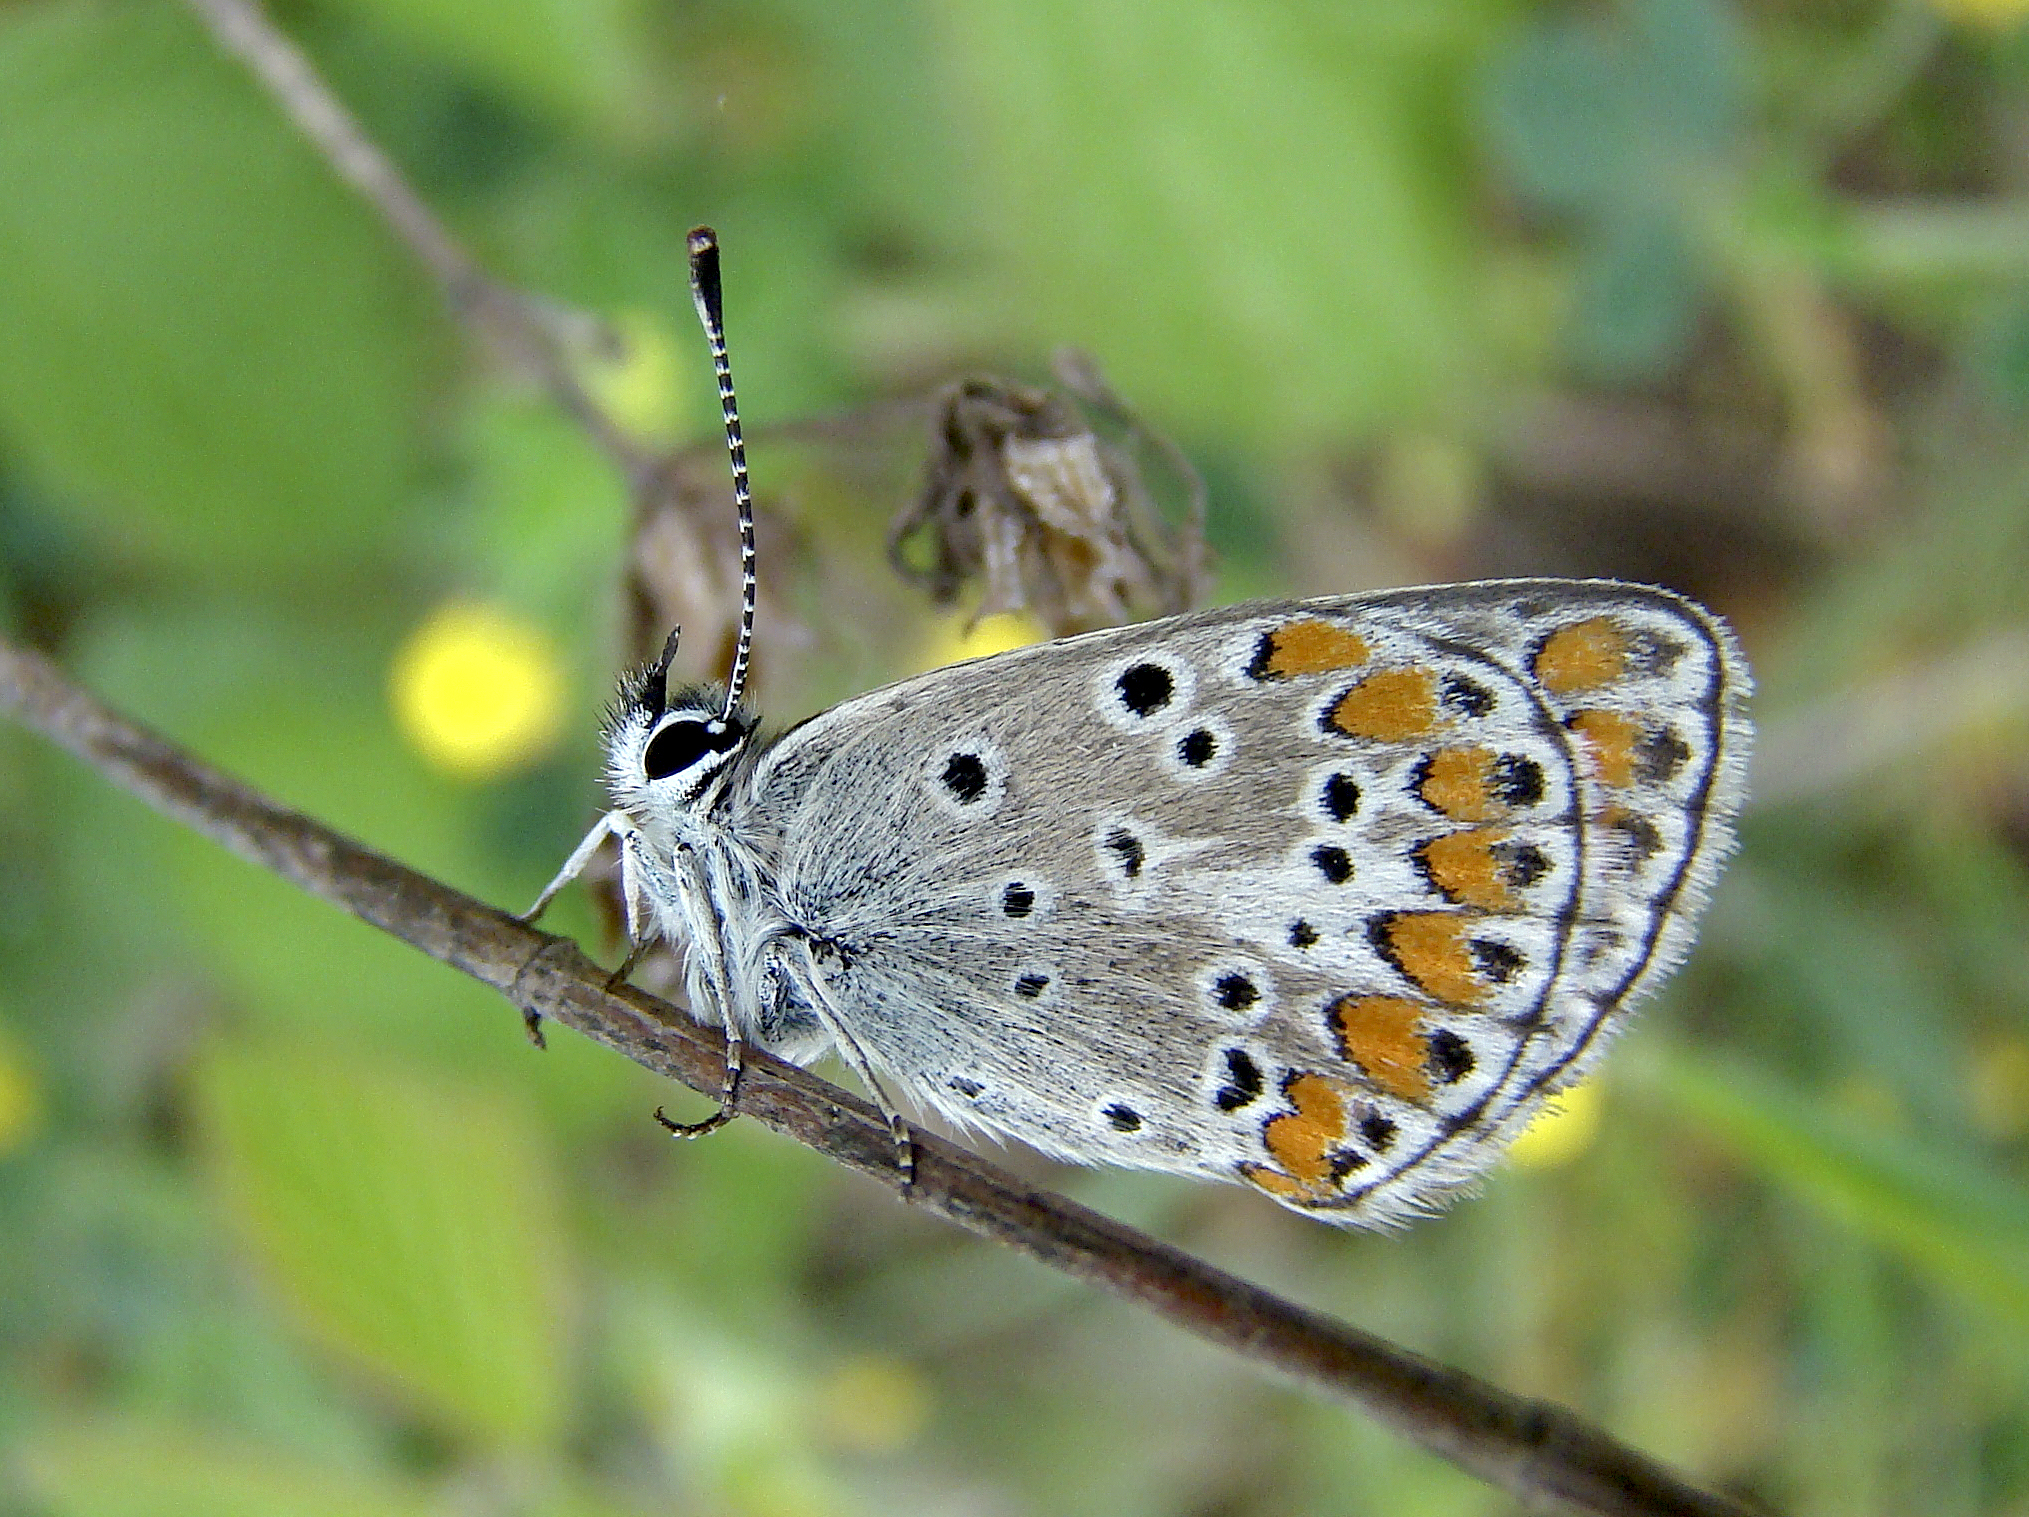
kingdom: Animalia
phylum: Arthropoda
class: Insecta
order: Lepidoptera
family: Lycaenidae
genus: Aricia
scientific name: Aricia agestis
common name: Brown argus
